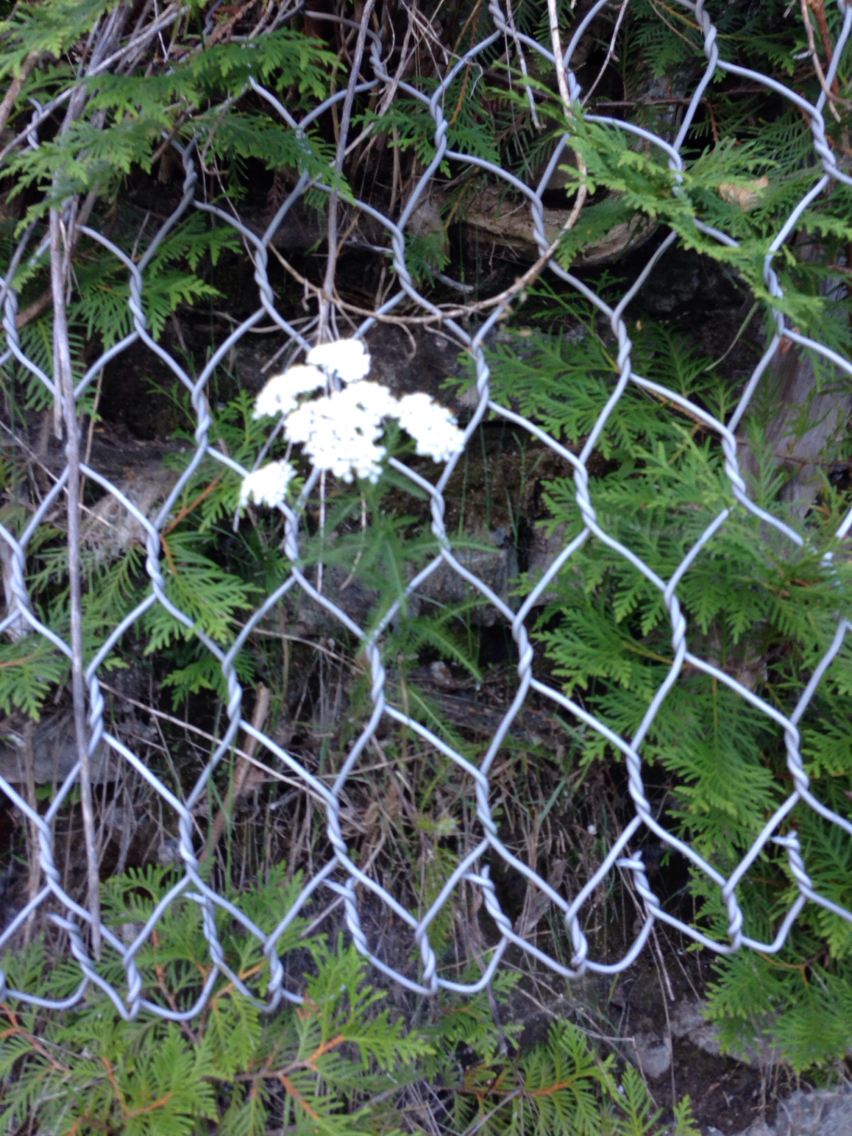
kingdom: Plantae
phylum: Tracheophyta
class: Magnoliopsida
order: Asterales
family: Asteraceae
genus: Achillea
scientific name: Achillea millefolium
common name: Yarrow
